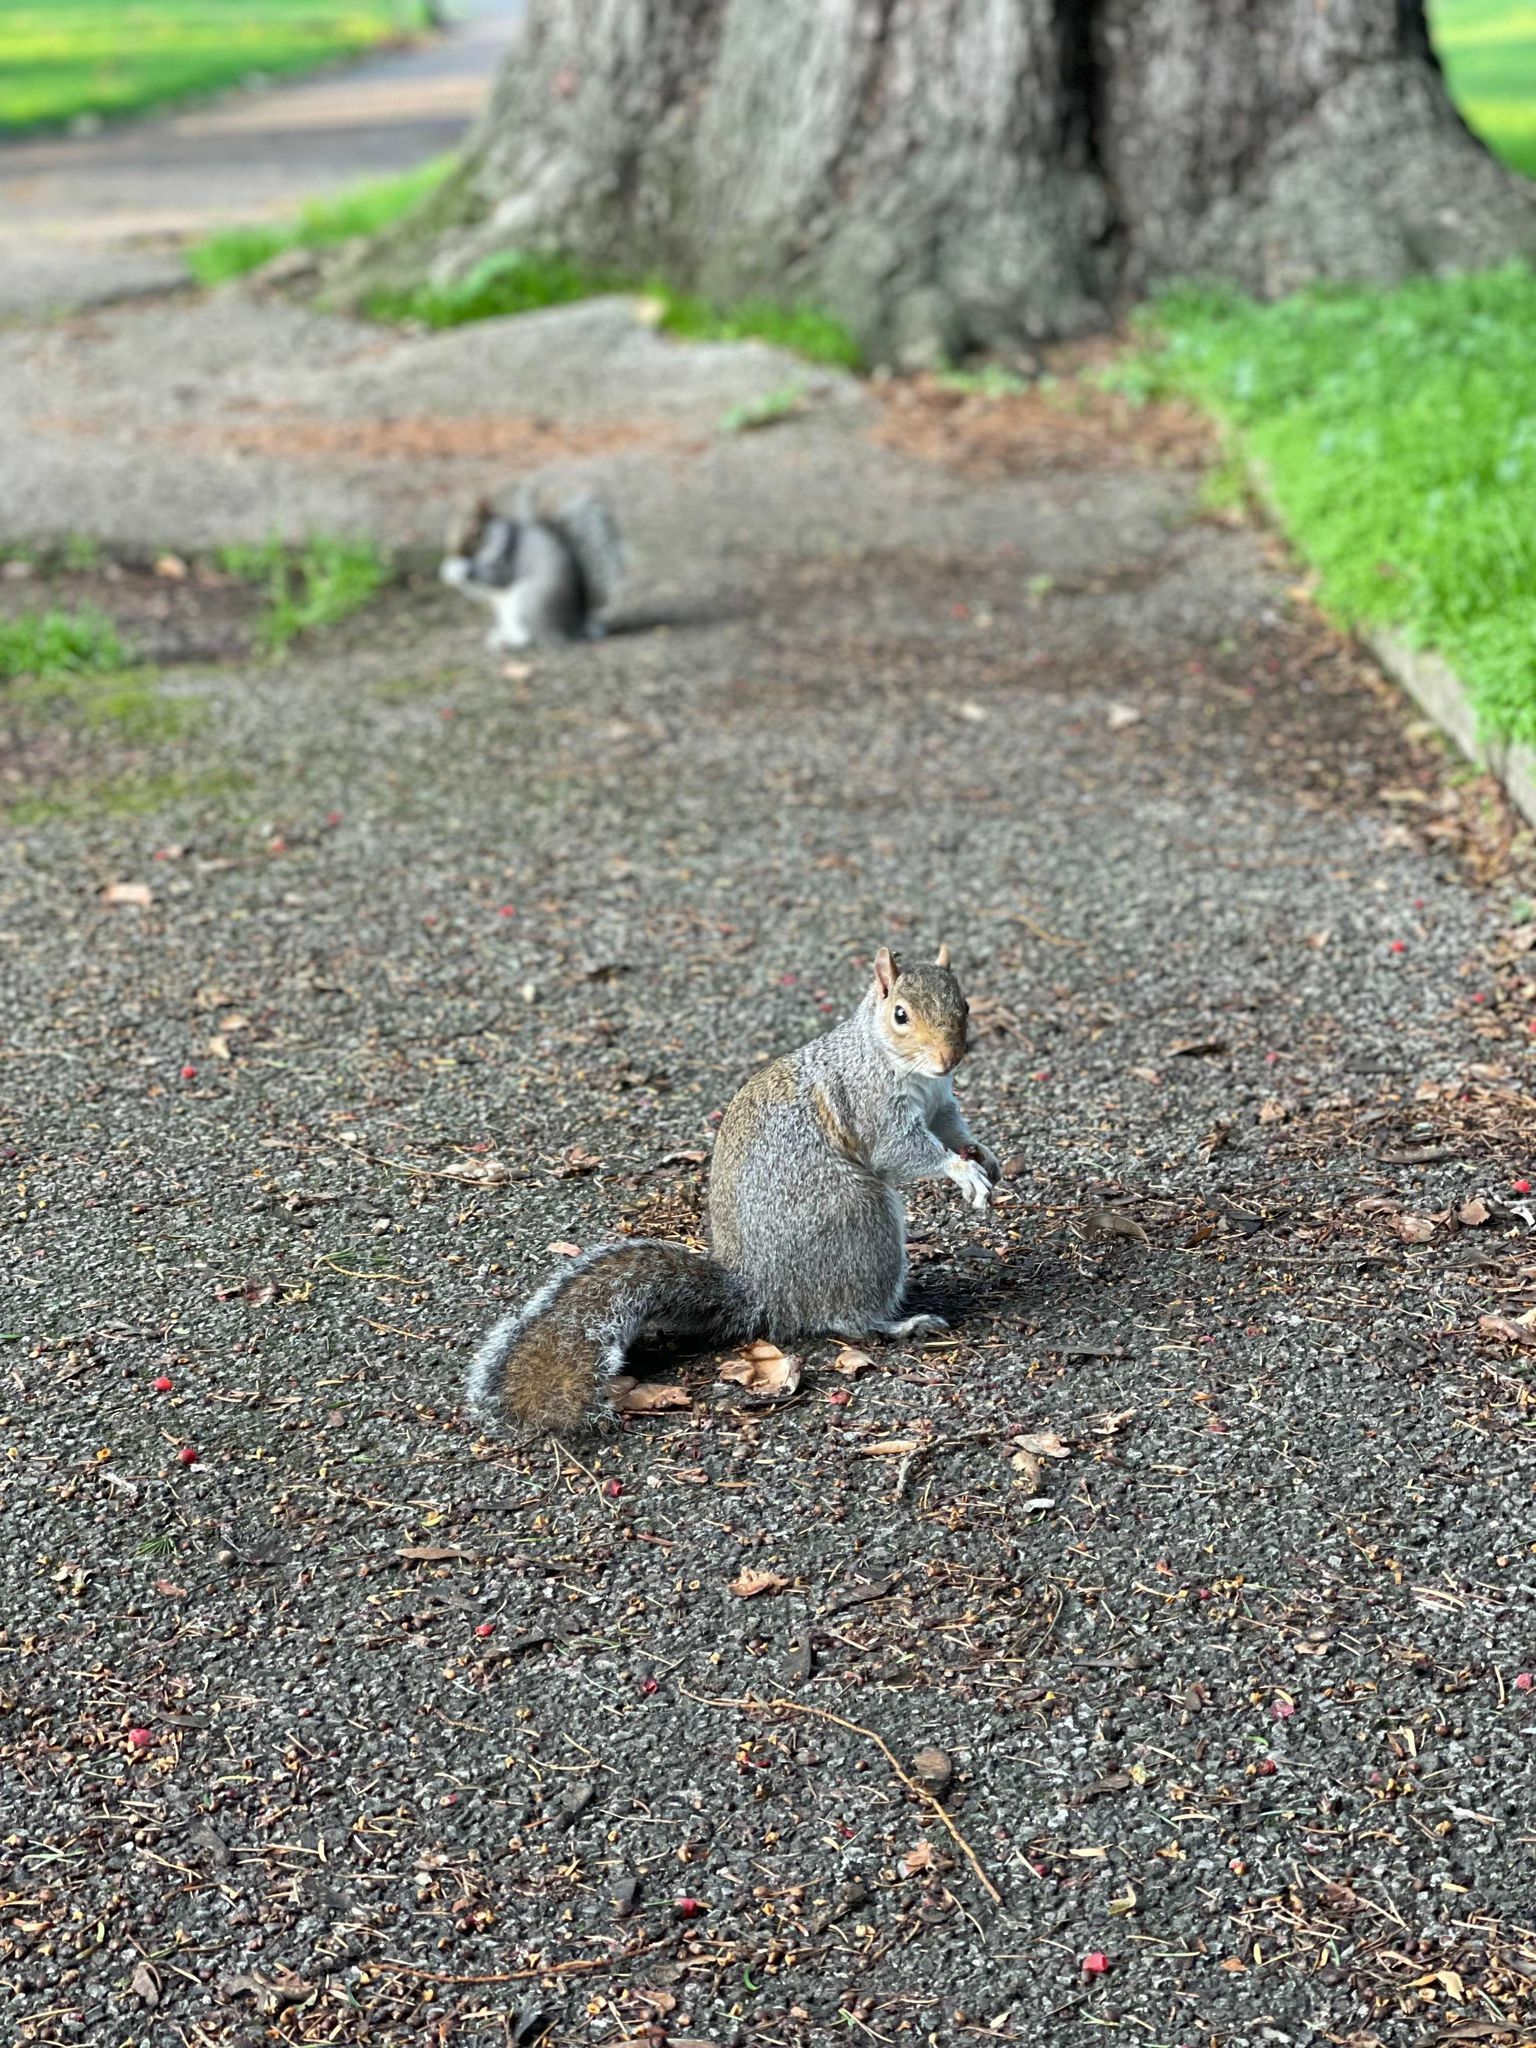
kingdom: Animalia
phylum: Chordata
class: Mammalia
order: Rodentia
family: Sciuridae
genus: Sciurus
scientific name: Sciurus carolinensis
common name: Eastern gray squirrel
